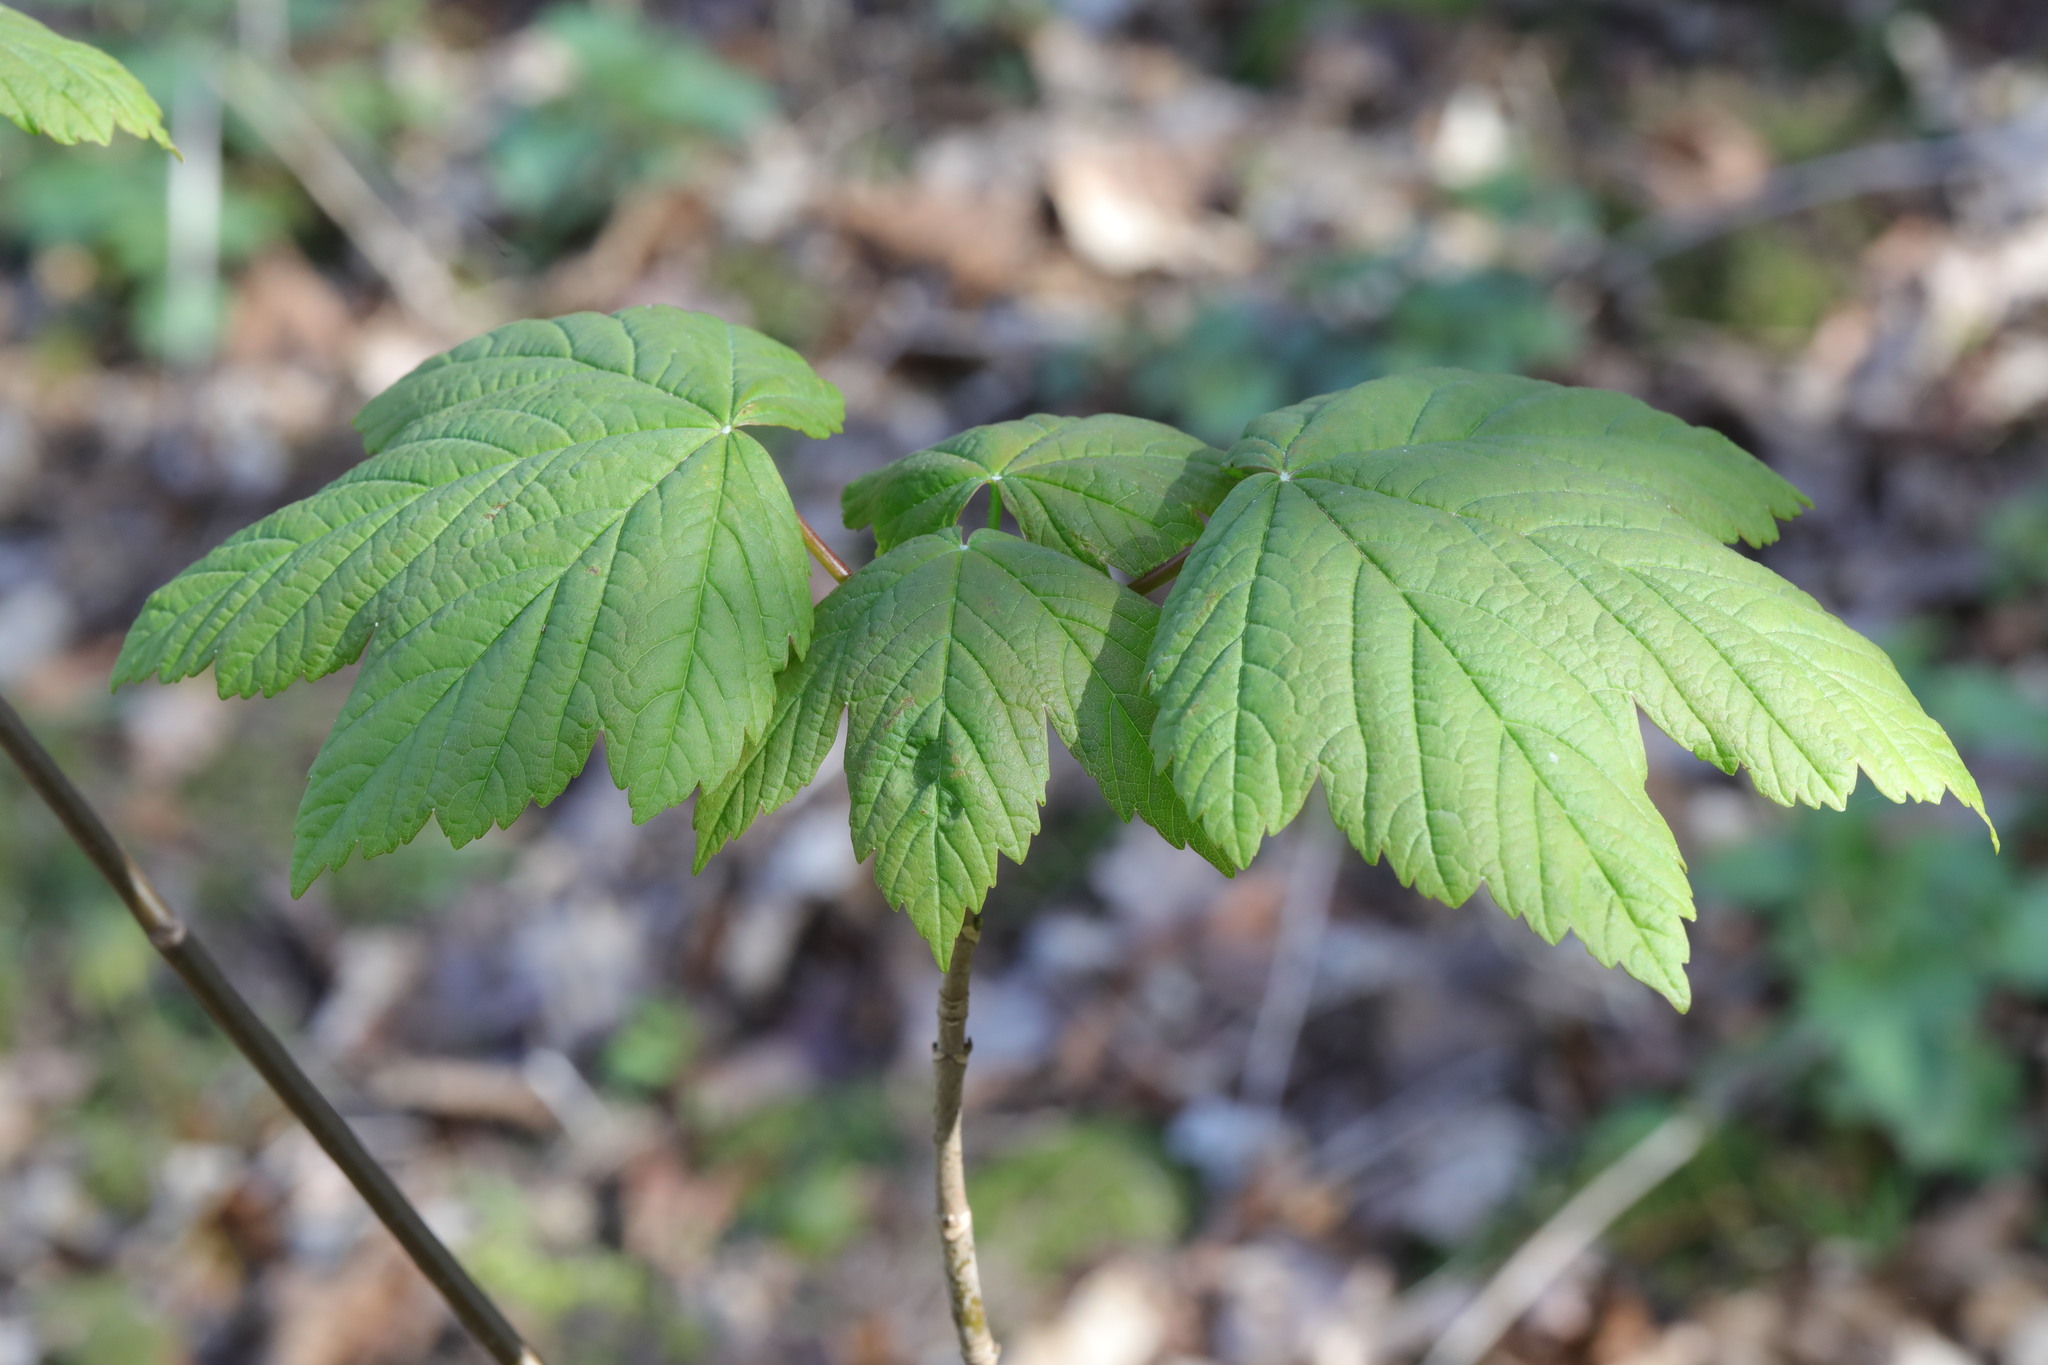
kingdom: Plantae
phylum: Tracheophyta
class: Magnoliopsida
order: Sapindales
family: Sapindaceae
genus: Acer
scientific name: Acer pseudoplatanus
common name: Sycamore
